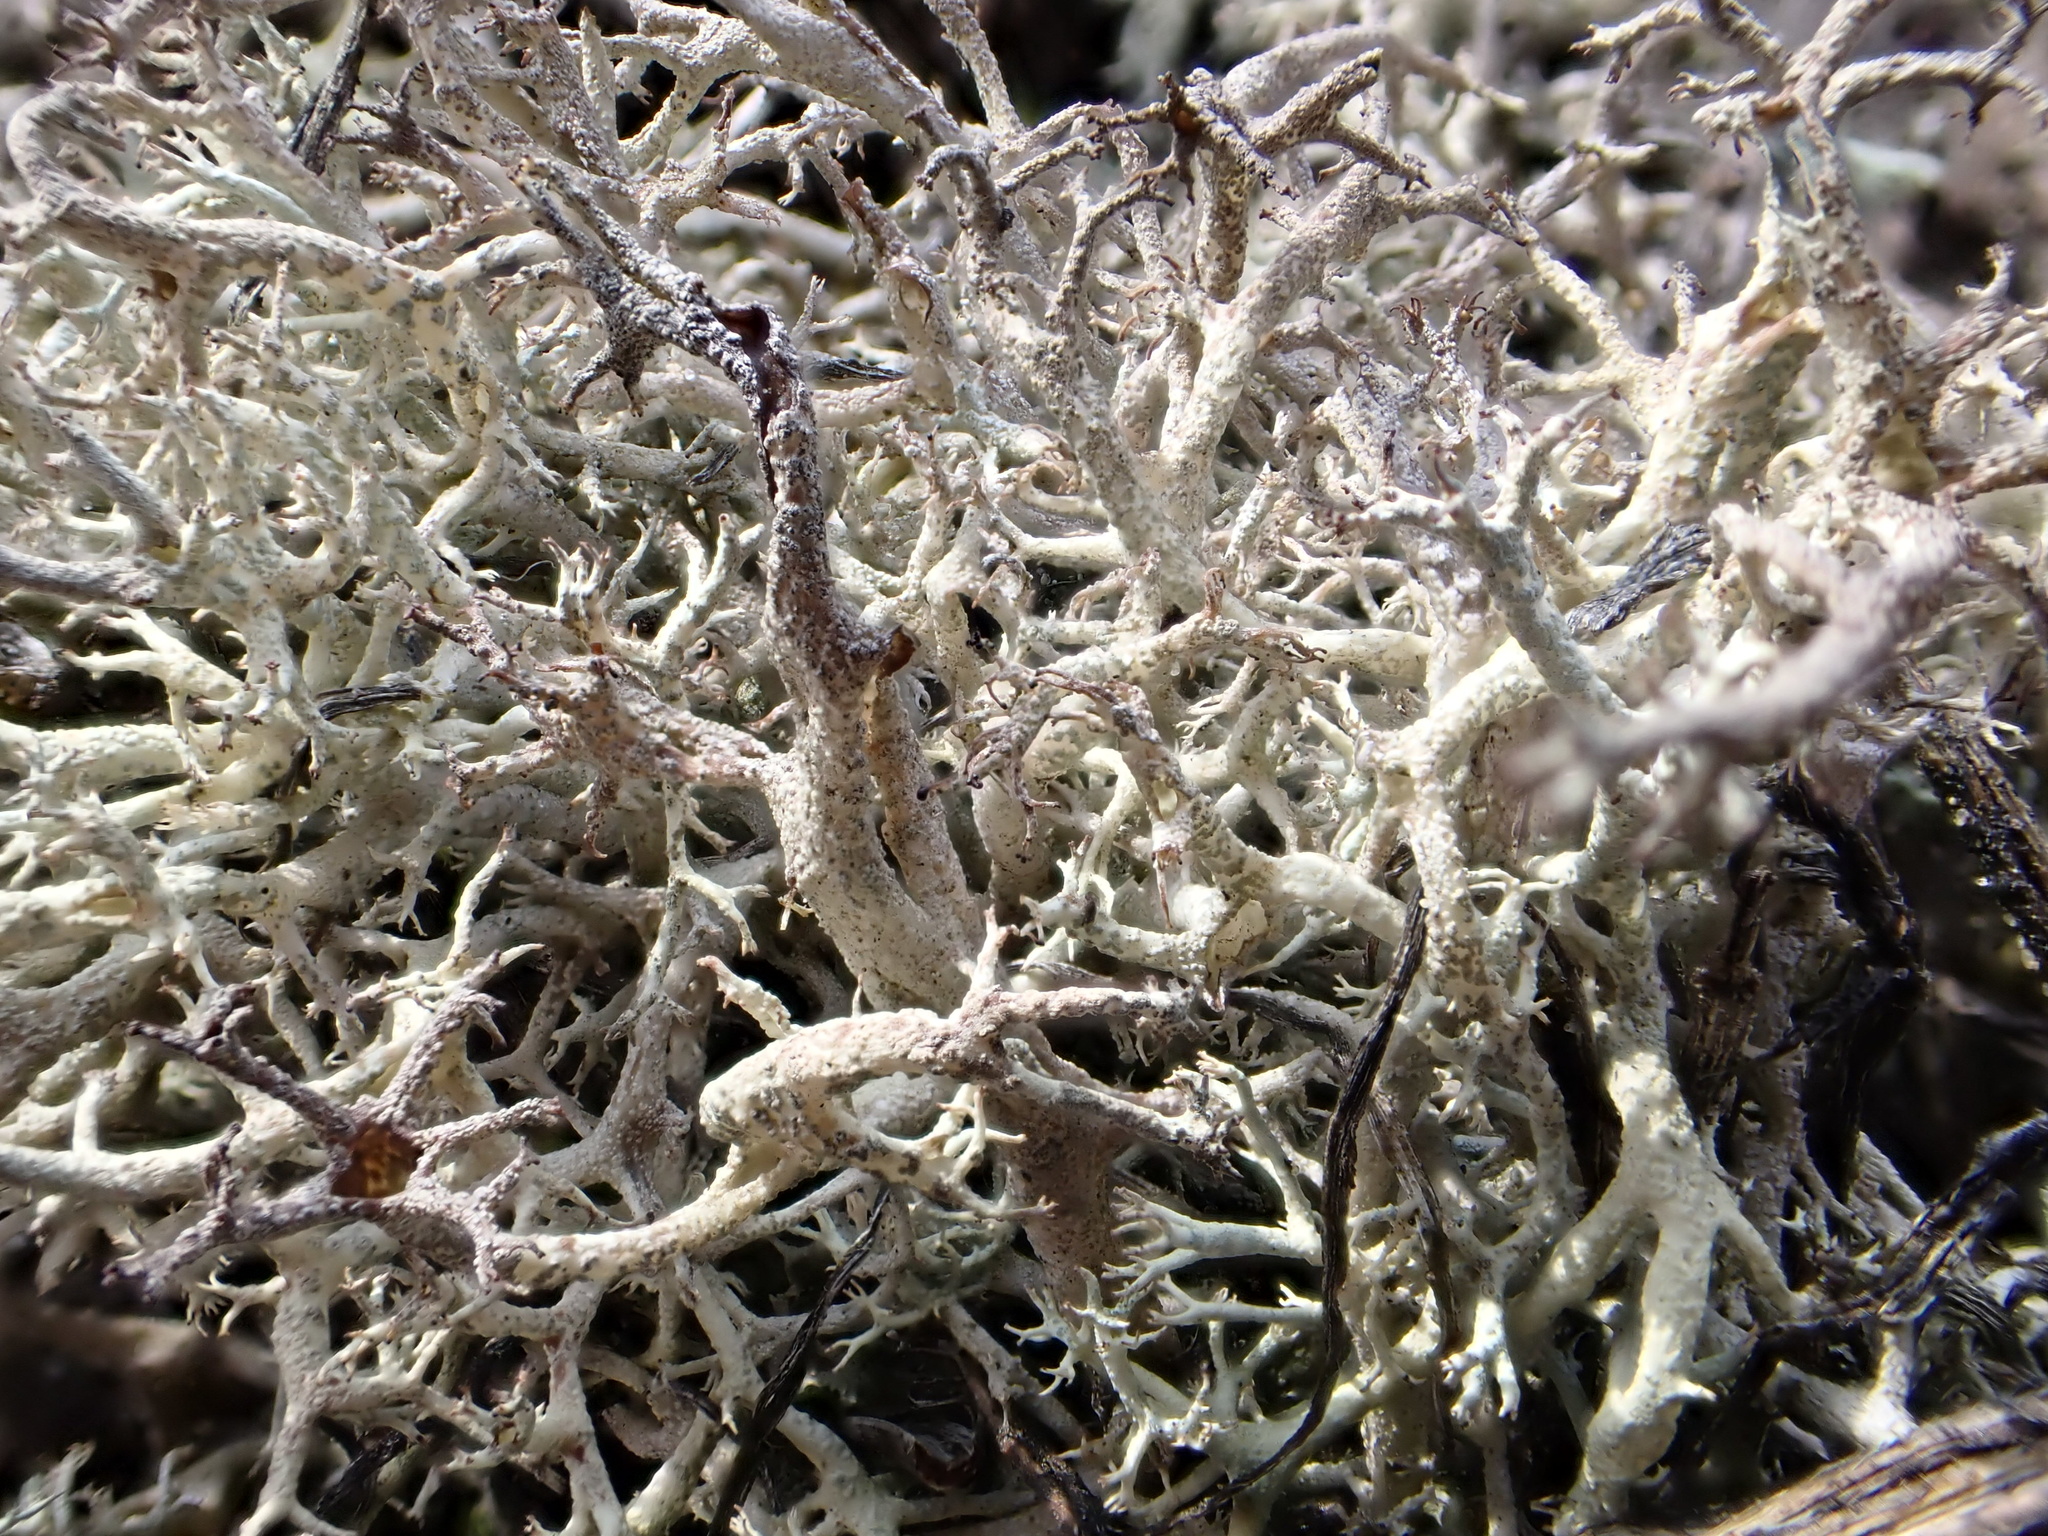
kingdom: Fungi
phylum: Ascomycota
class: Lecanoromycetes
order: Lecanorales
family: Cladoniaceae
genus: Cladonia
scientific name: Cladonia portentosa
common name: Reindeer lichen
